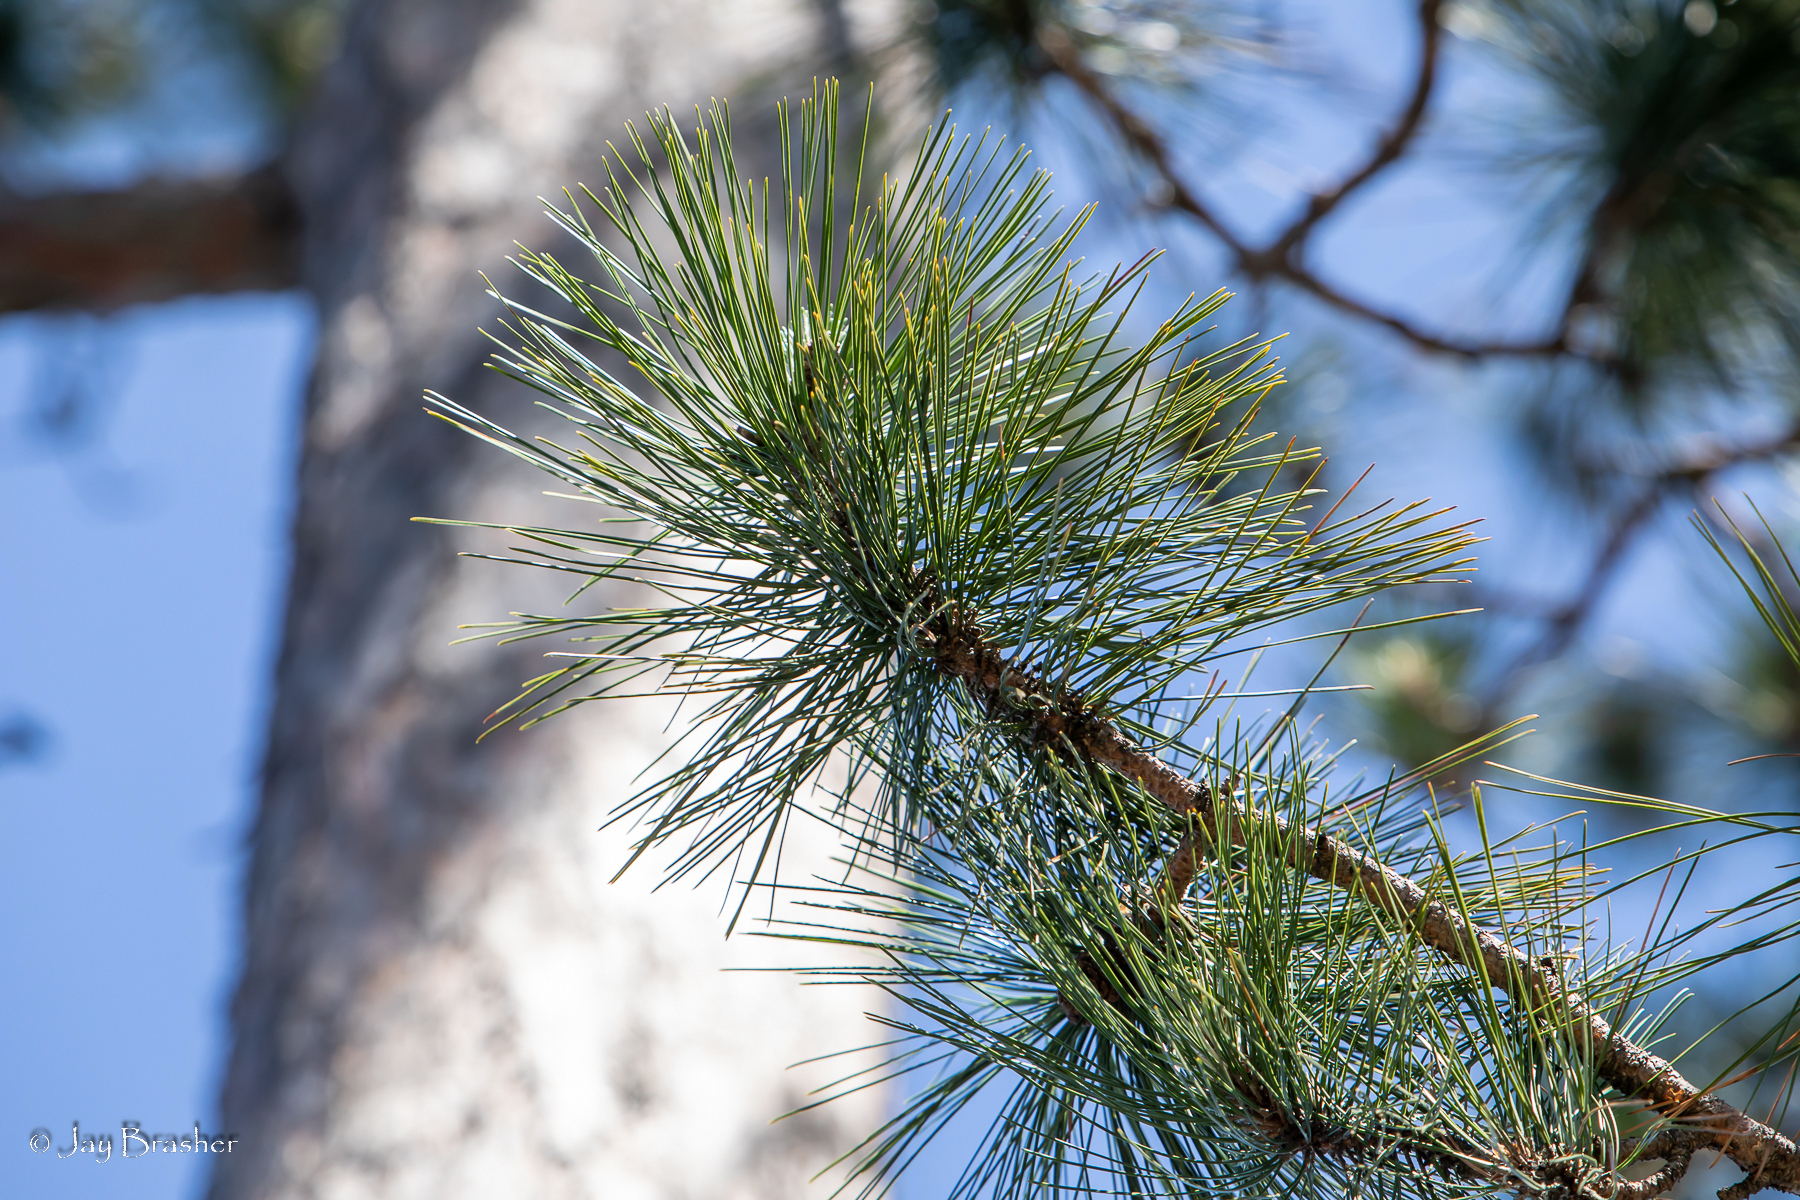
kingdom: Plantae
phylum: Tracheophyta
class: Pinopsida
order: Pinales
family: Pinaceae
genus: Pinus
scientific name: Pinus resinosa
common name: Norway pine
